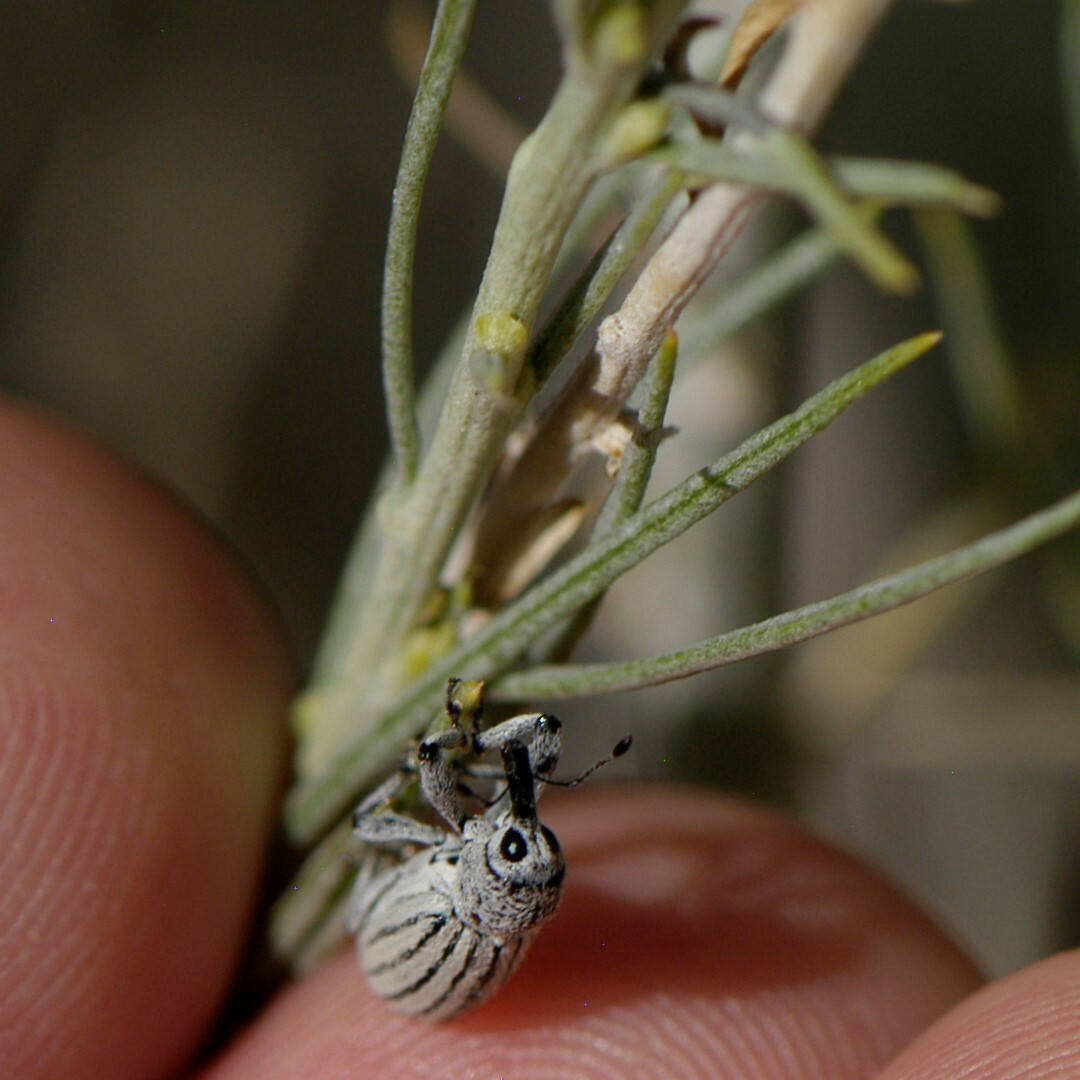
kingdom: Animalia
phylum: Arthropoda
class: Insecta
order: Coleoptera
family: Curculionidae
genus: Myrmex
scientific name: Myrmex lineatus
